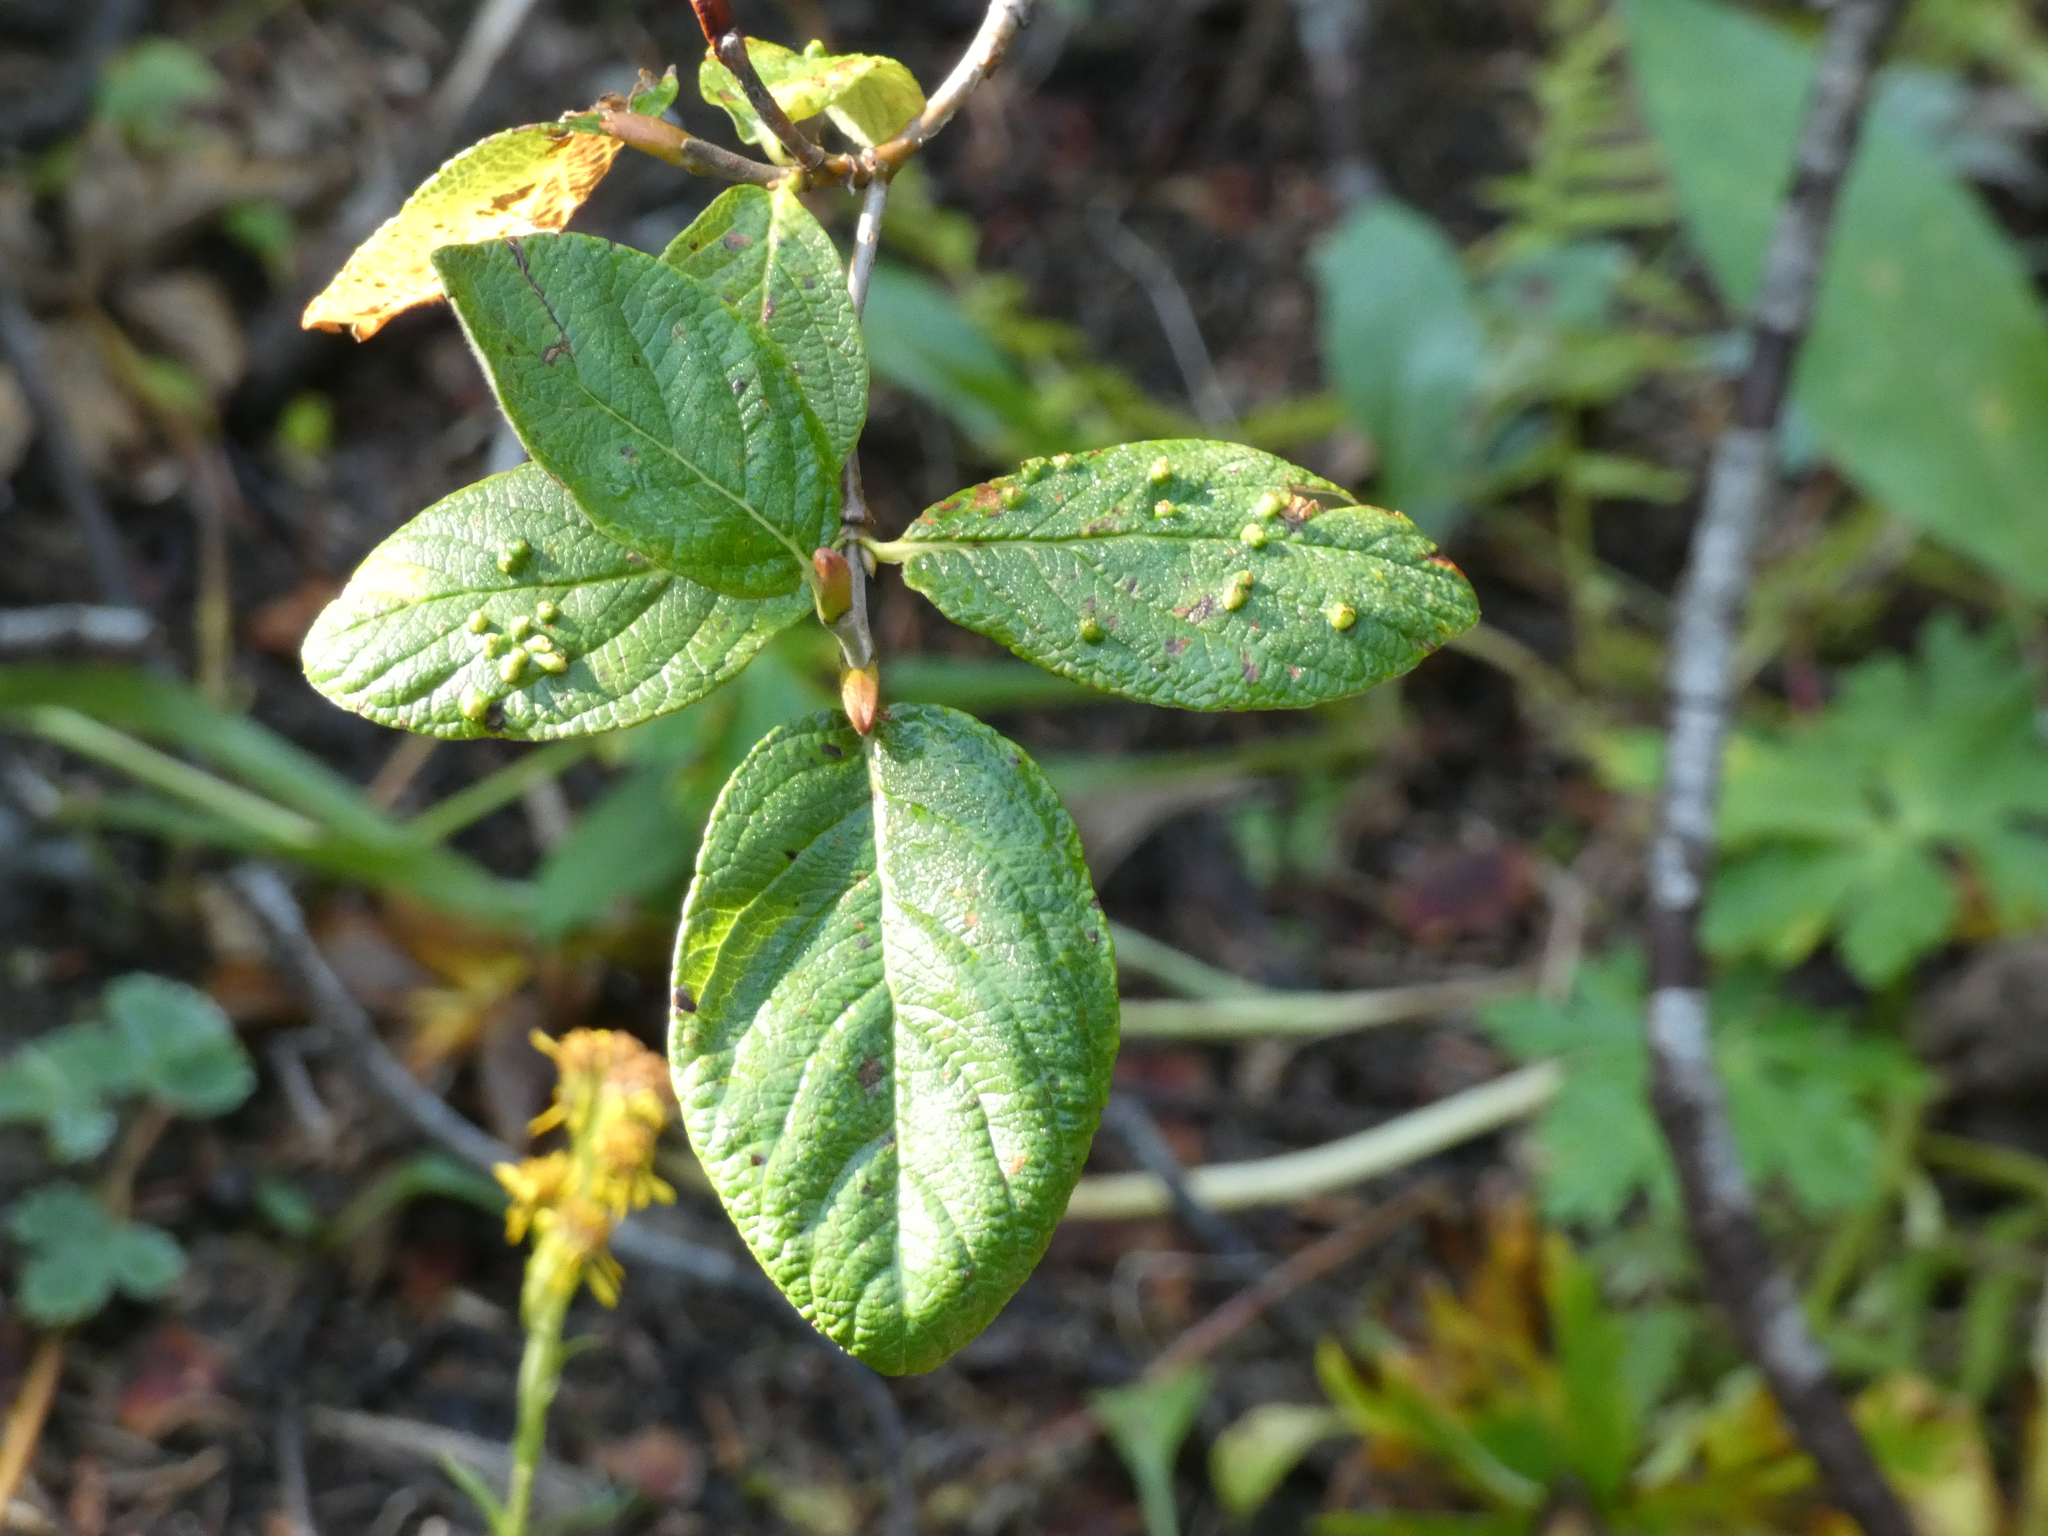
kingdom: Plantae
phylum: Tracheophyta
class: Magnoliopsida
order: Malpighiales
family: Salicaceae
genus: Salix
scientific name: Salix vestita
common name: Hairy willow
